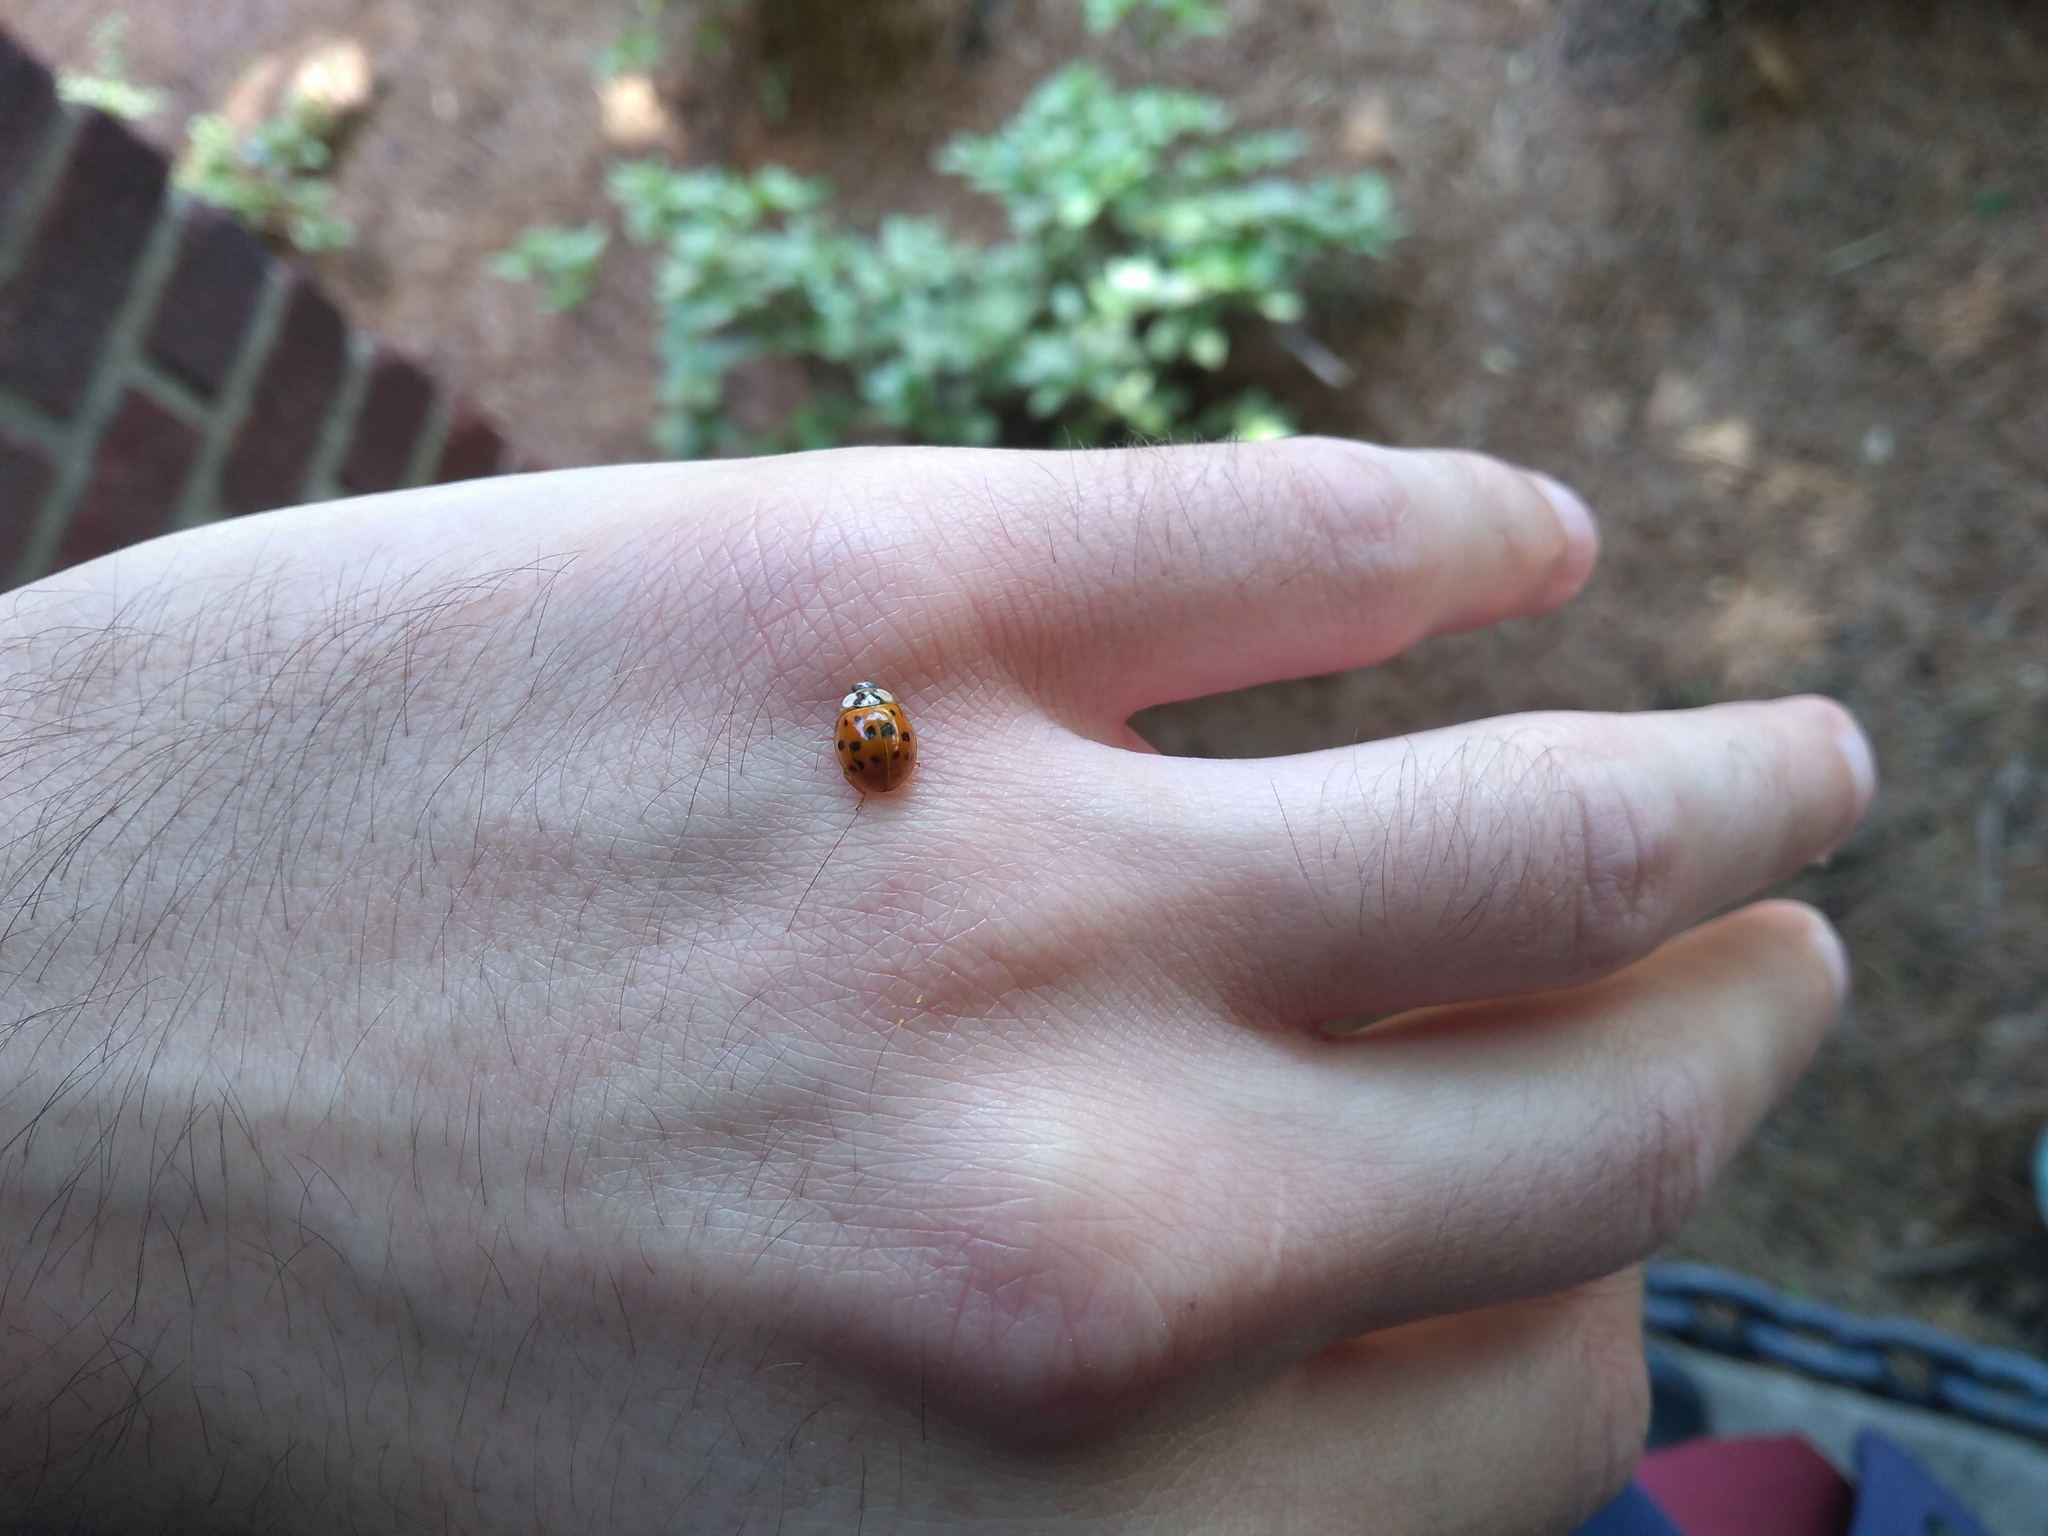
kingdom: Animalia
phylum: Arthropoda
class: Insecta
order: Coleoptera
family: Coccinellidae
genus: Harmonia
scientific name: Harmonia axyridis
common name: Harlequin ladybird
